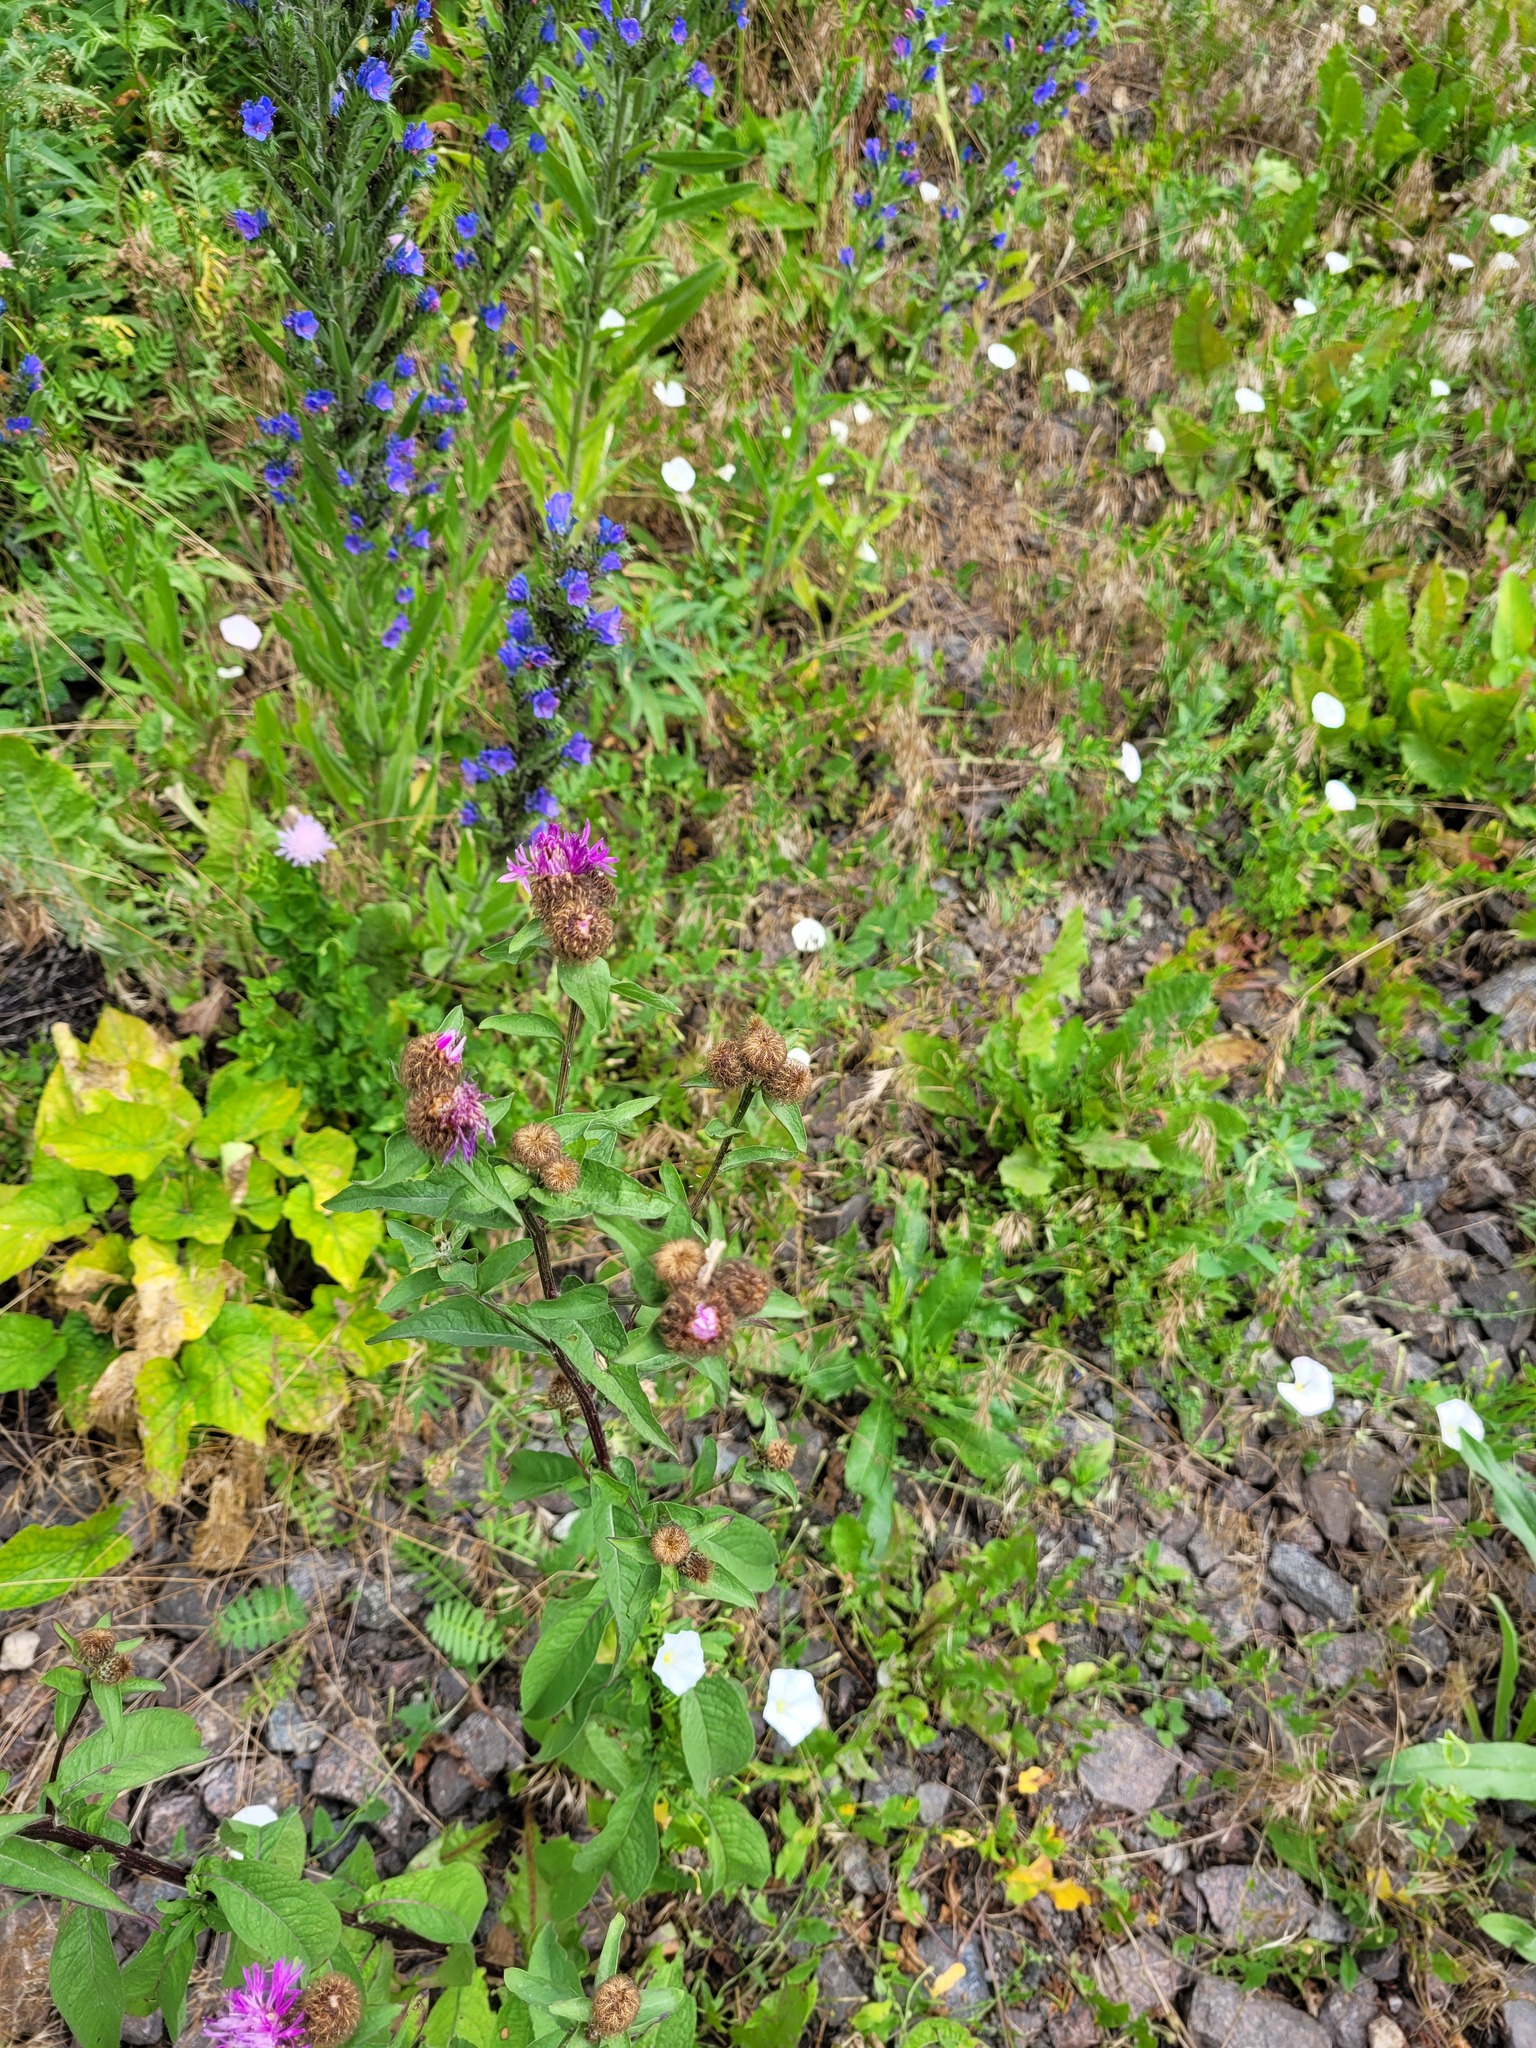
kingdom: Plantae
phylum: Tracheophyta
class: Magnoliopsida
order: Asterales
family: Asteraceae
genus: Centaurea
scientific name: Centaurea pseudophrygia
